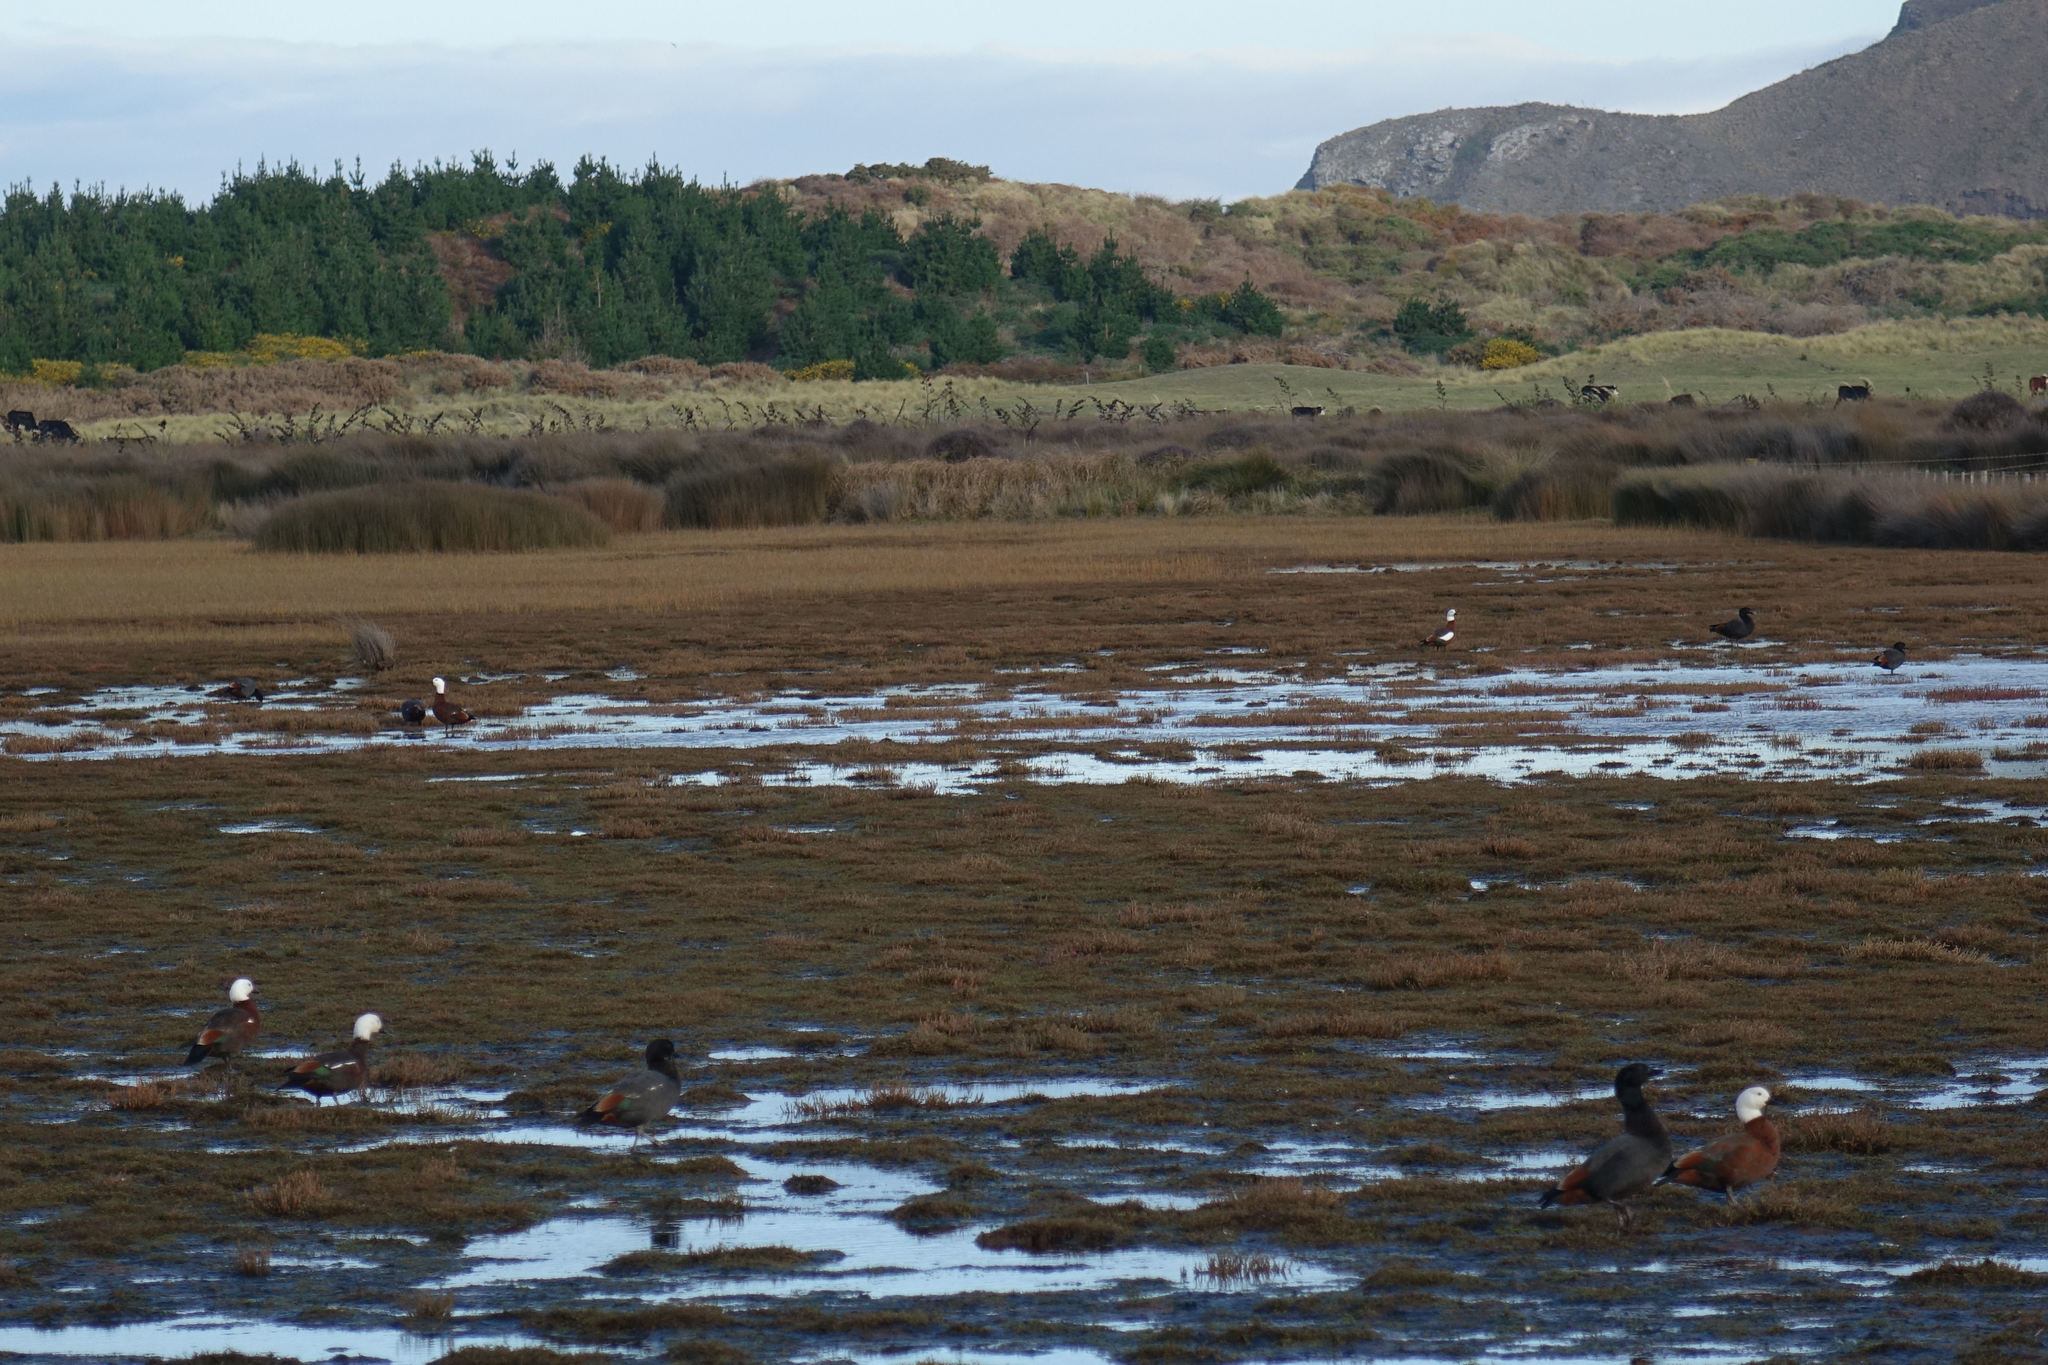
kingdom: Animalia
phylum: Chordata
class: Aves
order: Anseriformes
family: Anatidae
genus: Tadorna
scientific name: Tadorna variegata
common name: Paradise shelduck
